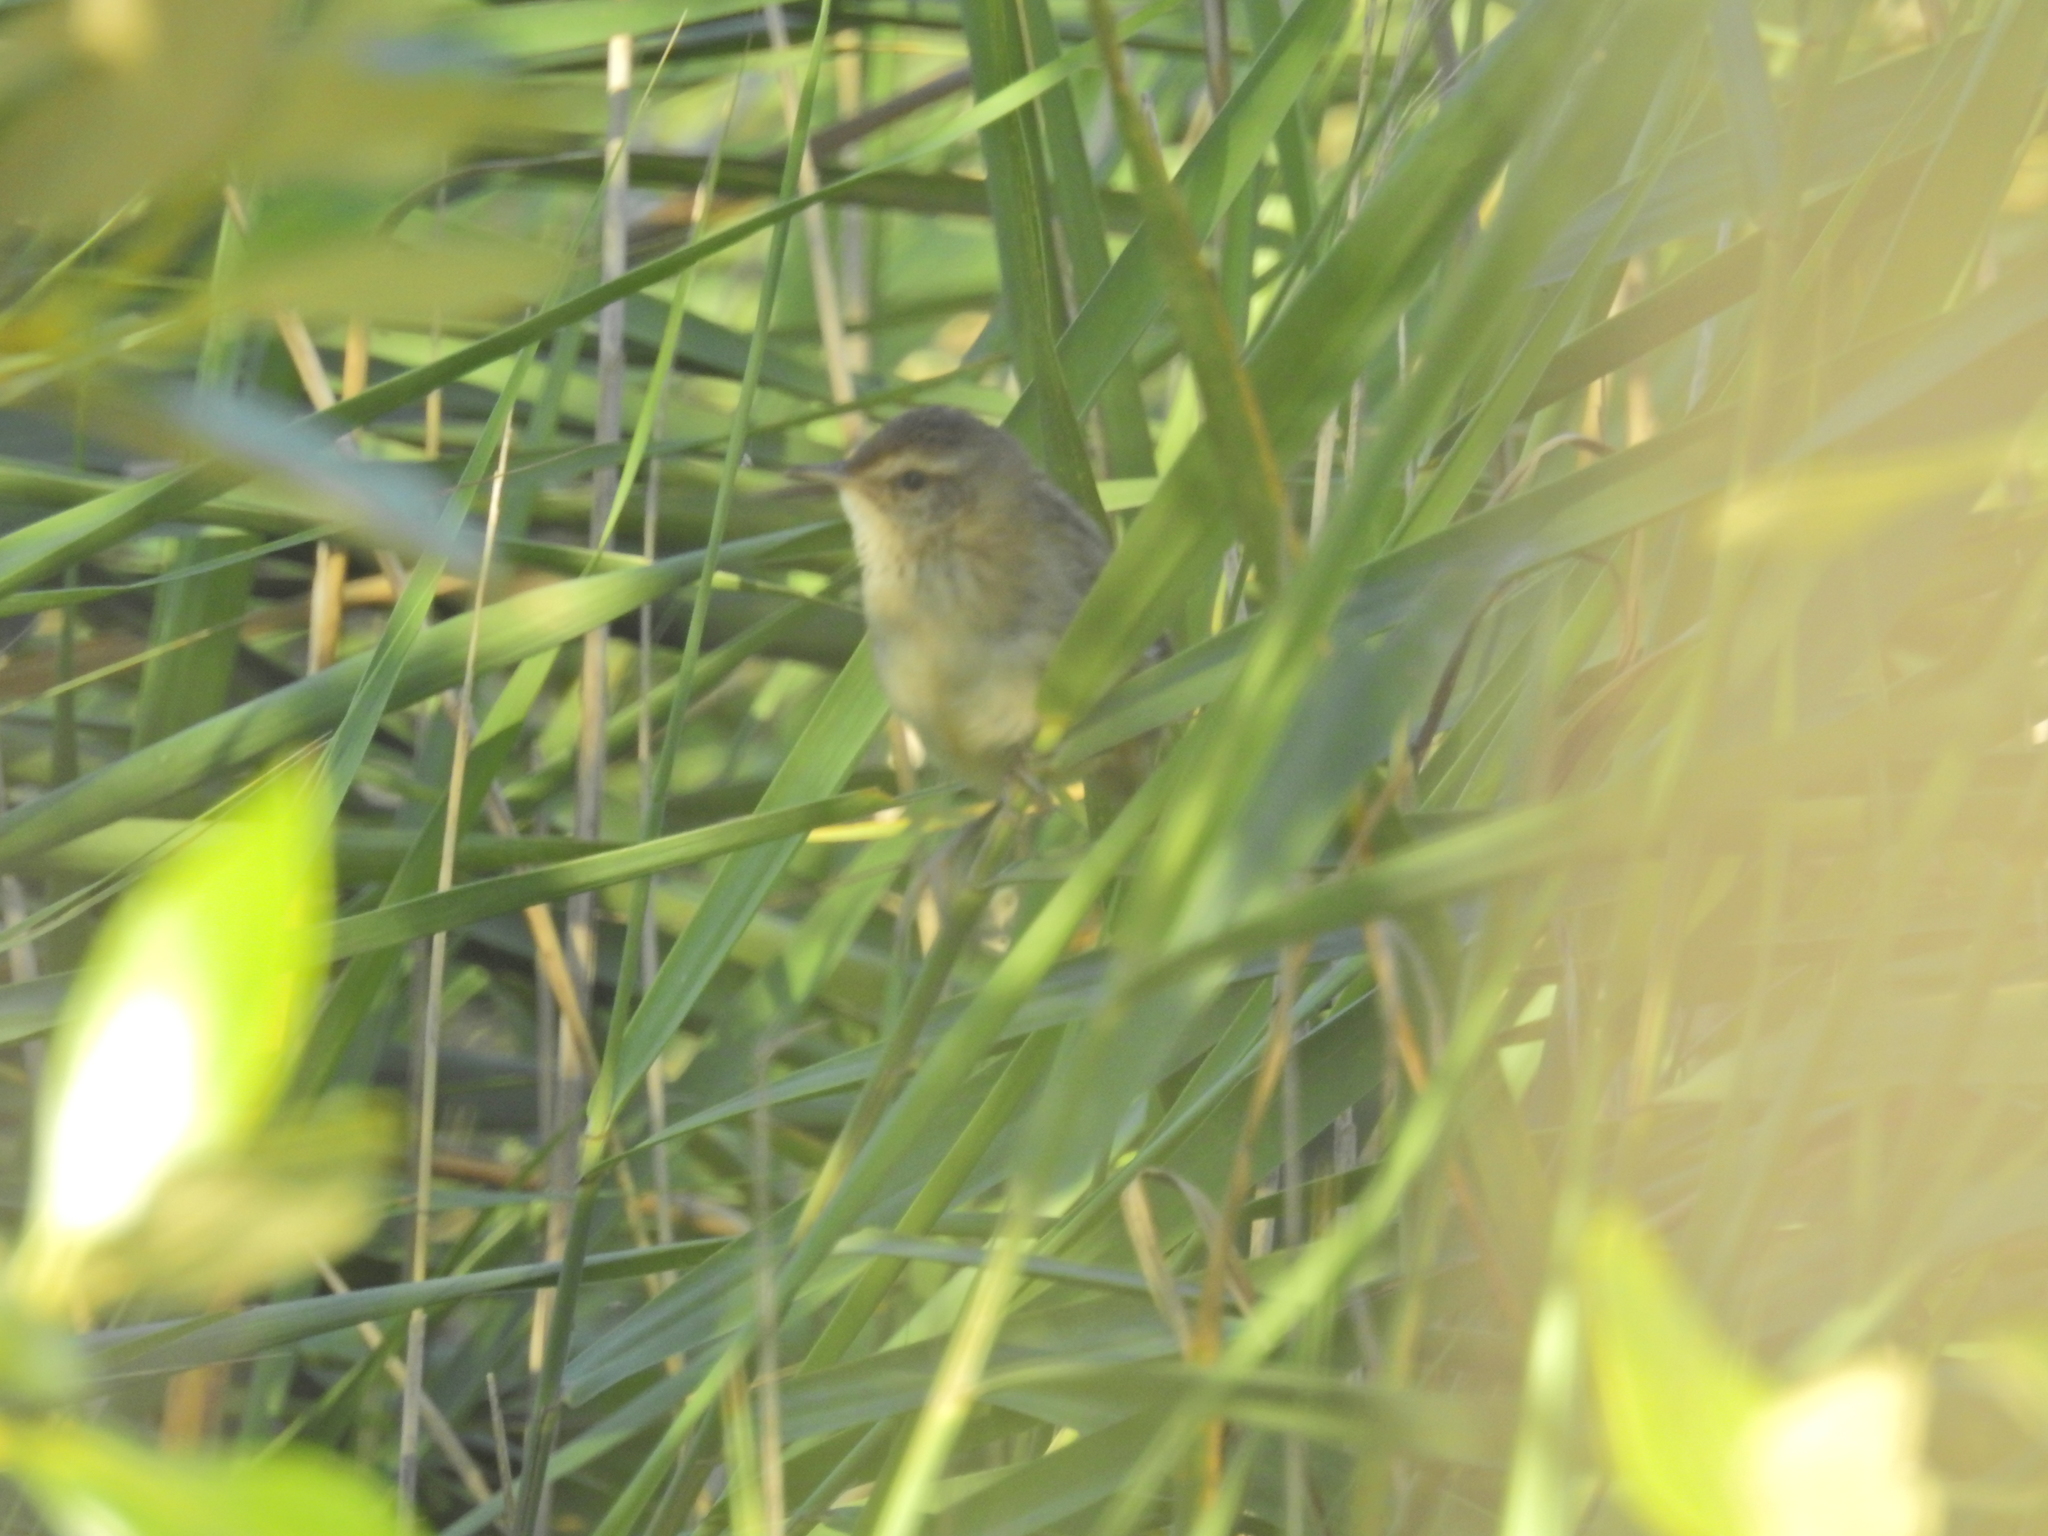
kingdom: Animalia
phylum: Chordata
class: Aves
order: Passeriformes
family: Locustellidae
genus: Megalurus
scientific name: Megalurus gramineus
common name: Little grassbird
